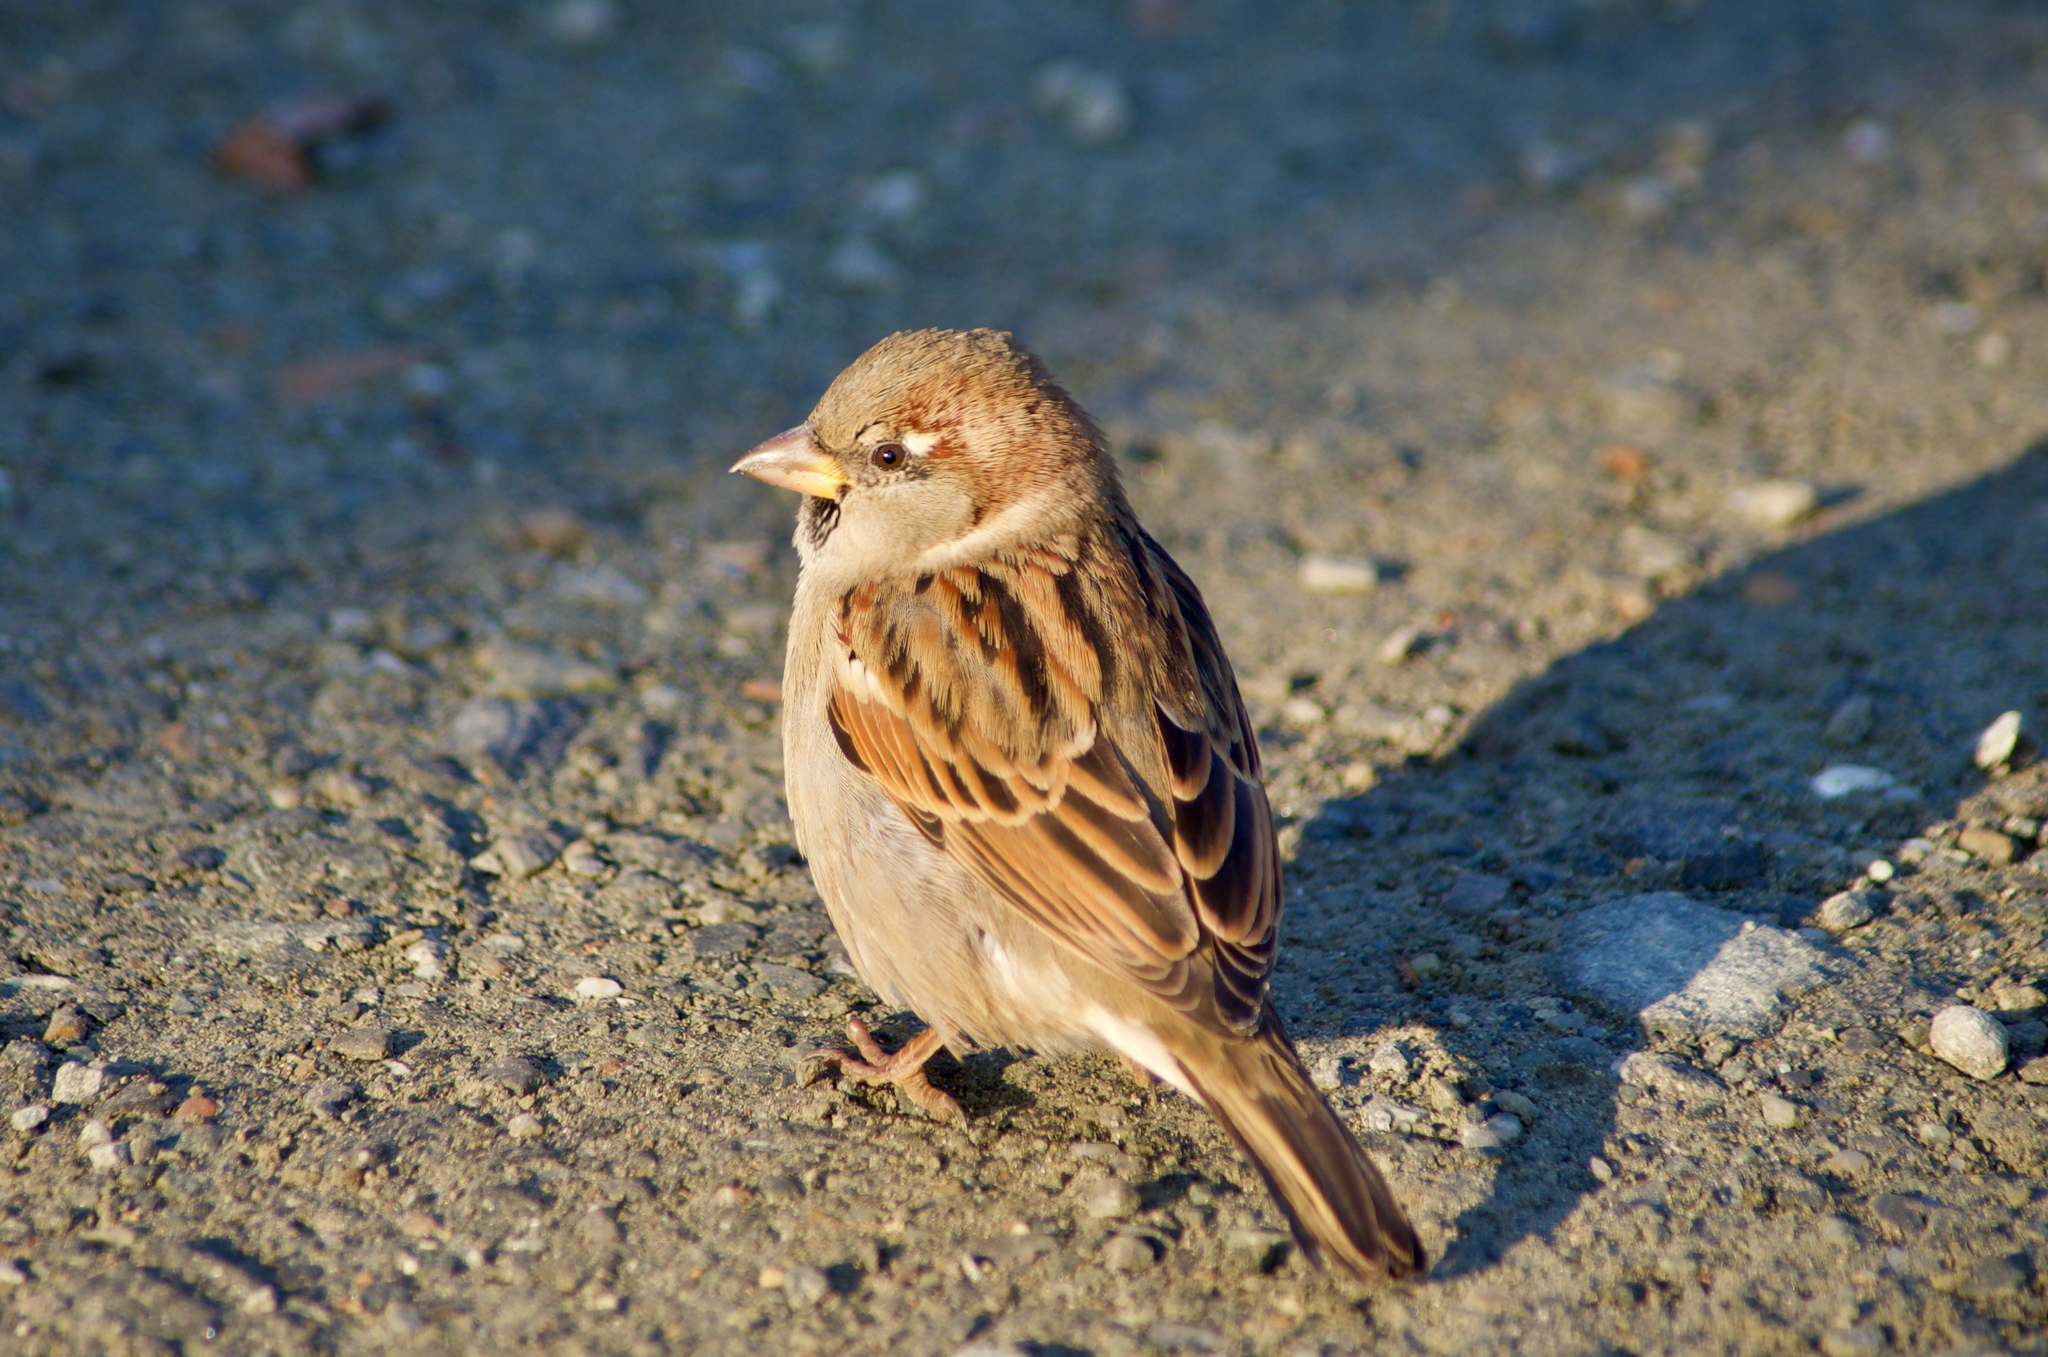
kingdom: Animalia
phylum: Chordata
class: Aves
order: Passeriformes
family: Passeridae
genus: Passer
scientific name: Passer domesticus
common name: House sparrow
